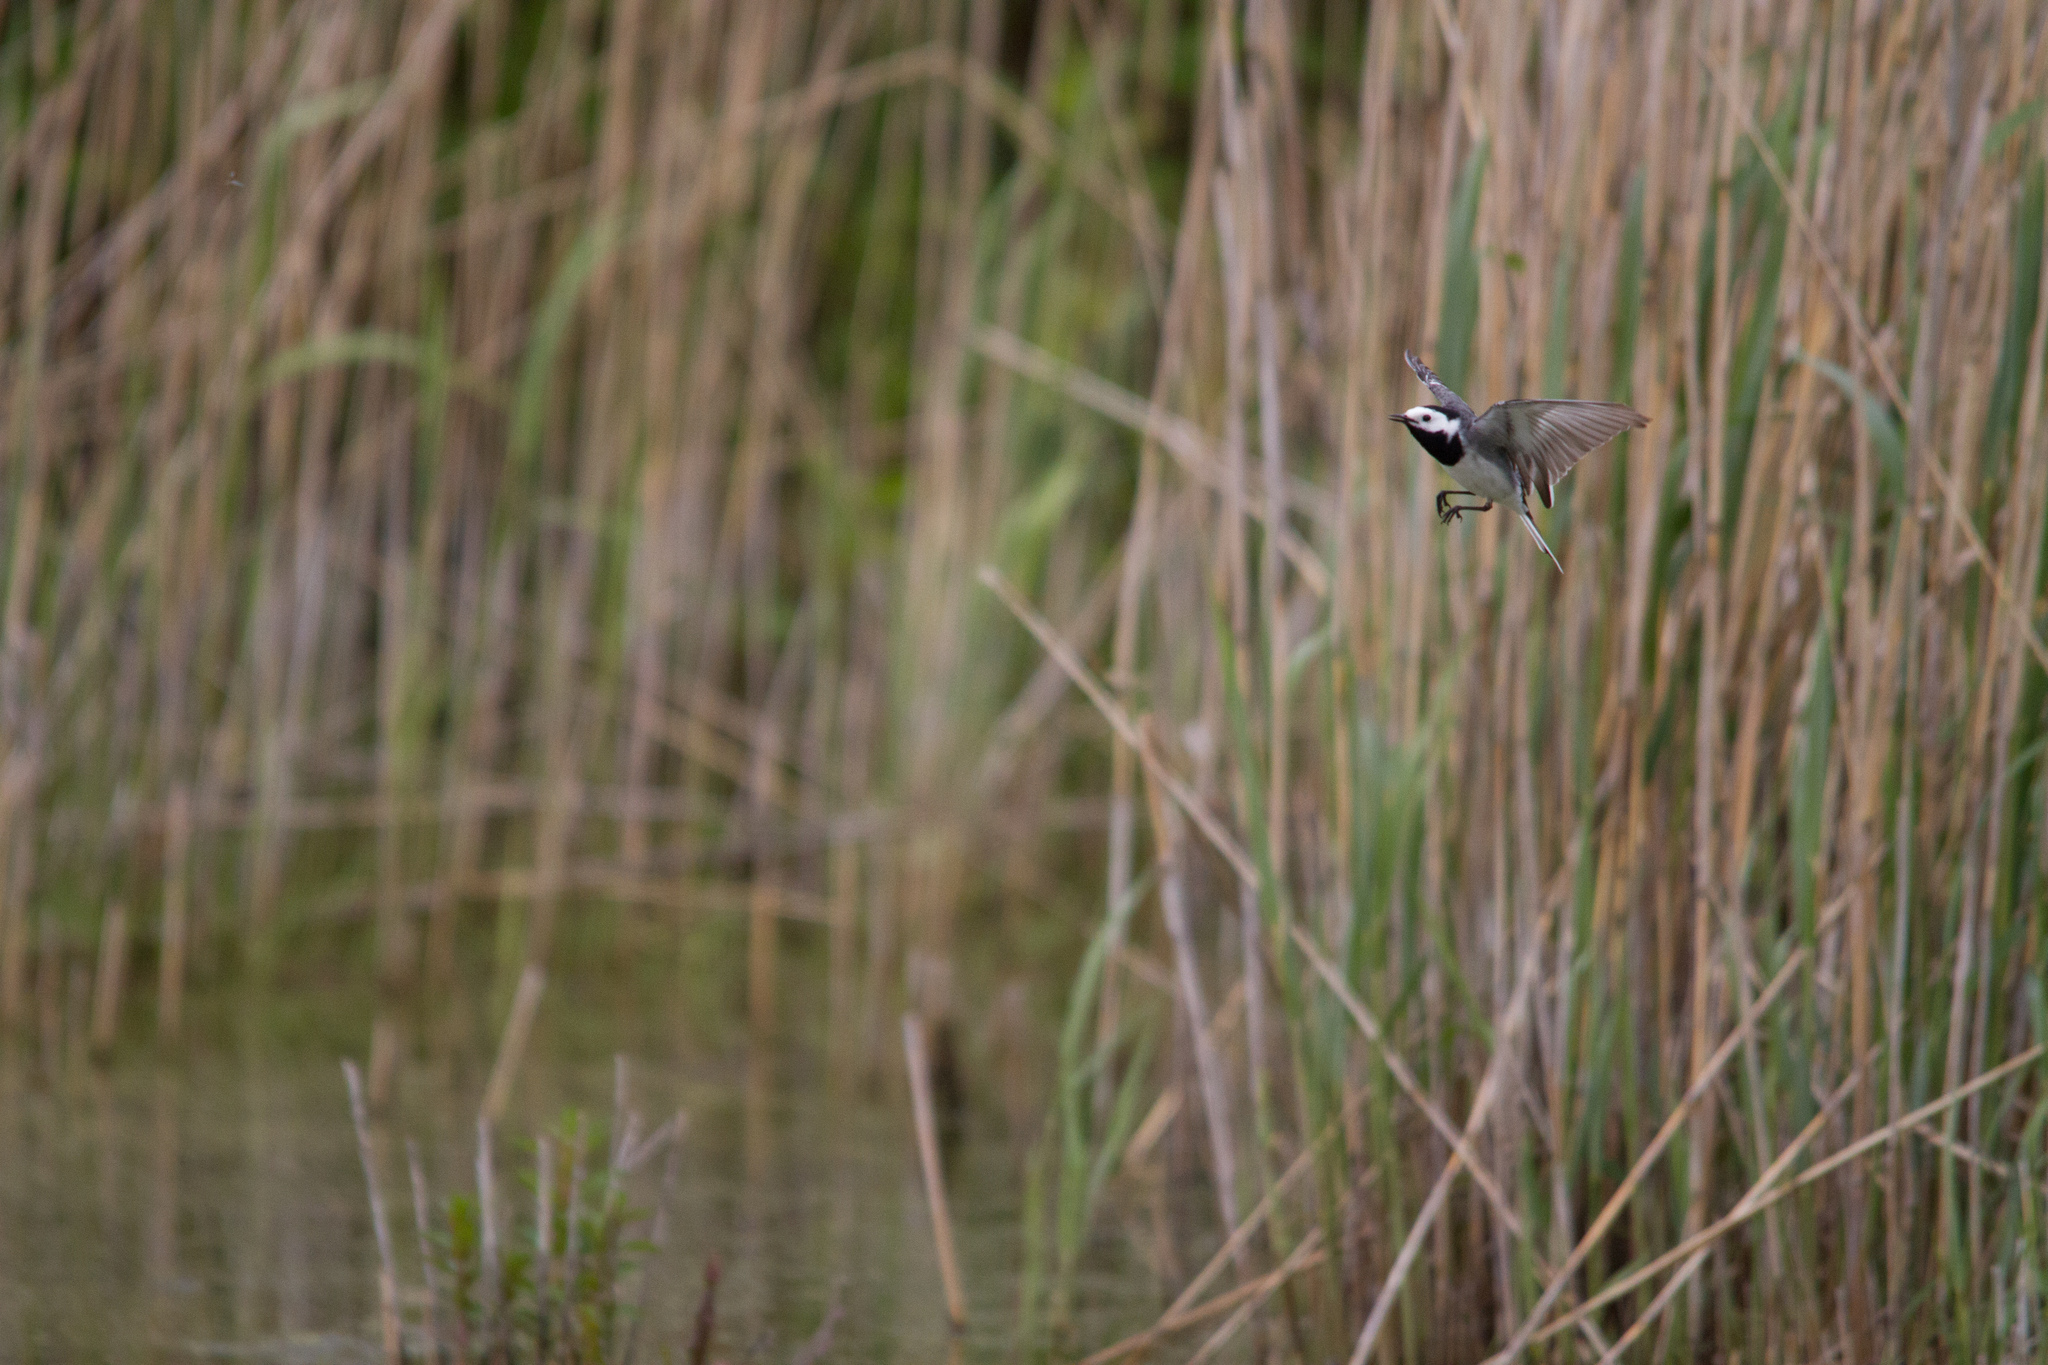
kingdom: Animalia
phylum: Chordata
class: Aves
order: Passeriformes
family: Motacillidae
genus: Motacilla
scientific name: Motacilla alba
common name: White wagtail
